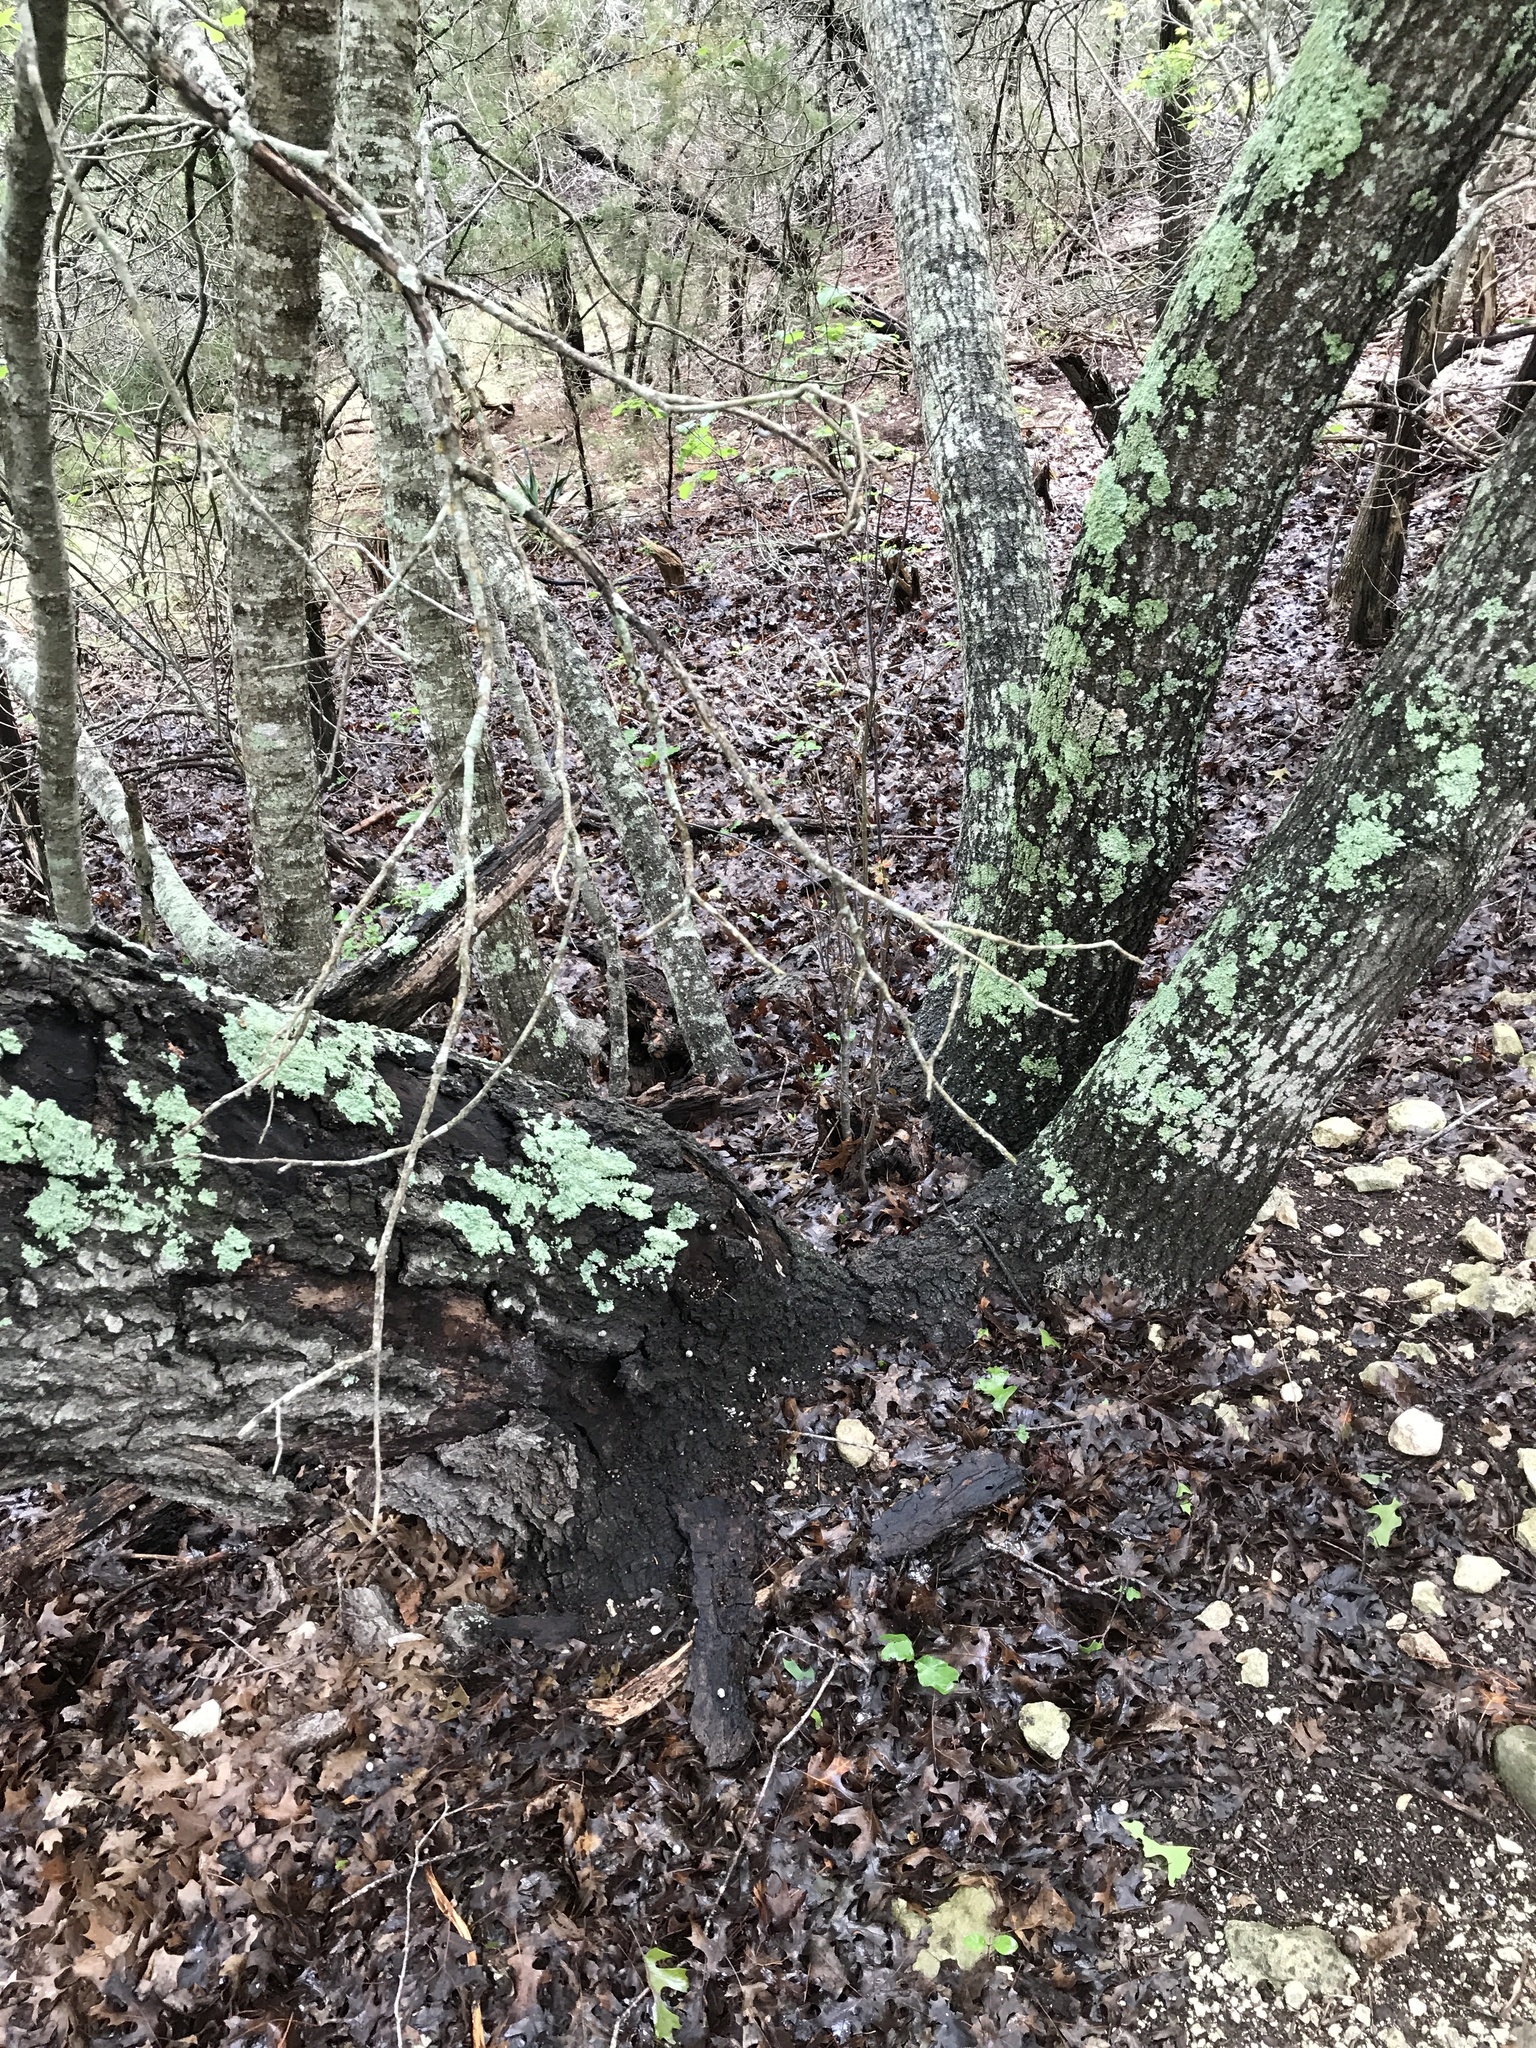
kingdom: Plantae
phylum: Tracheophyta
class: Magnoliopsida
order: Fagales
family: Fagaceae
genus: Quercus
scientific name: Quercus buckleyi
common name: Buckley oak
